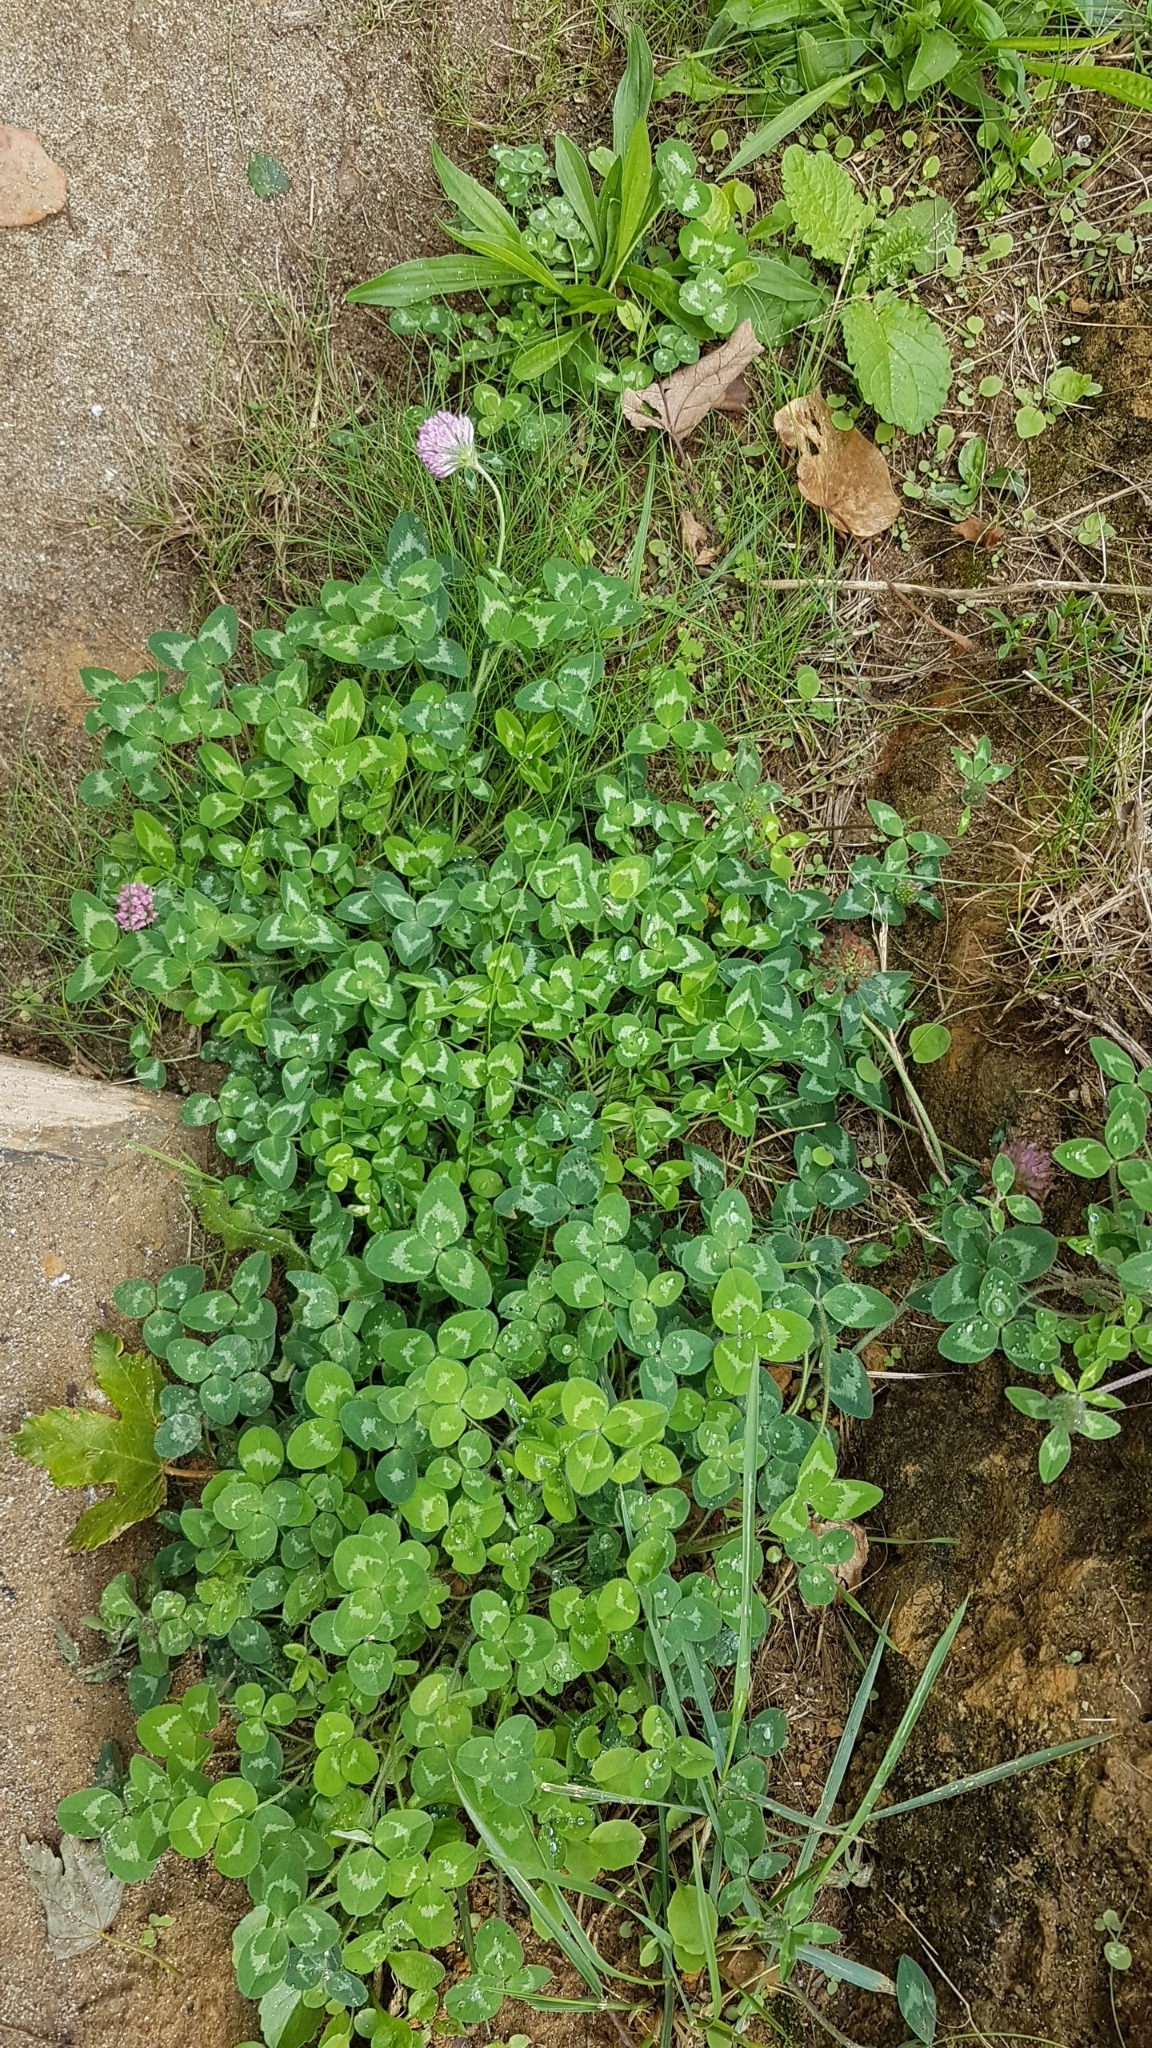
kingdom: Plantae
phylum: Tracheophyta
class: Magnoliopsida
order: Fabales
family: Fabaceae
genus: Trifolium
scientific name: Trifolium pratense
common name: Red clover
